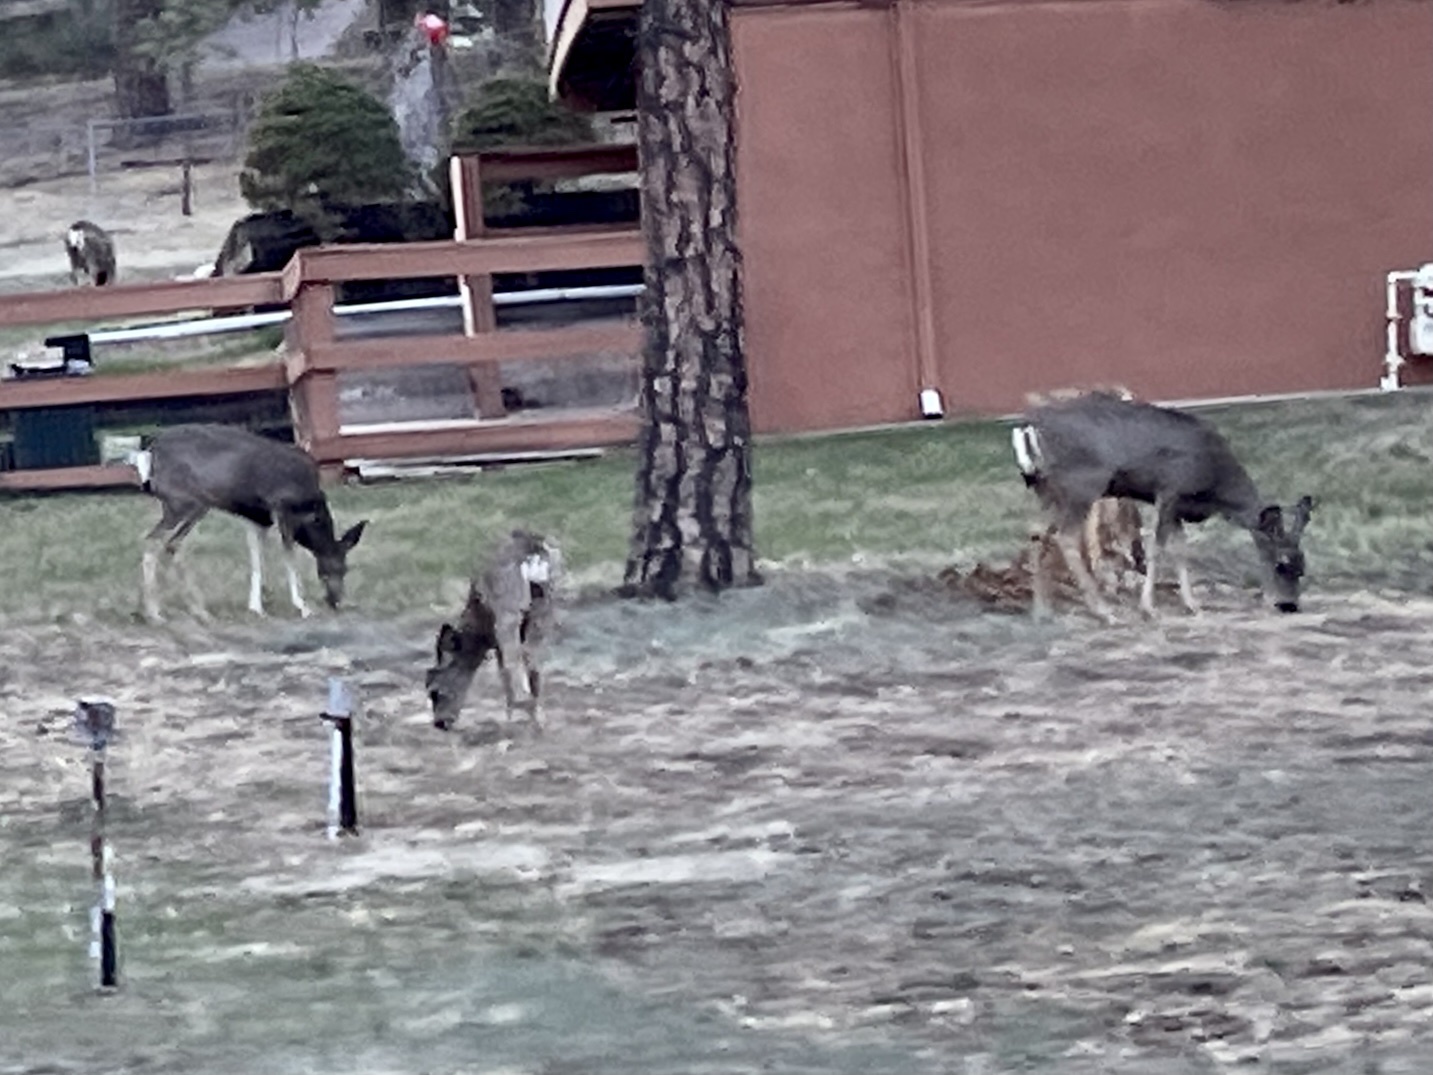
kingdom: Animalia
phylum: Chordata
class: Mammalia
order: Artiodactyla
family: Cervidae
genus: Odocoileus
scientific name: Odocoileus hemionus
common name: Mule deer
